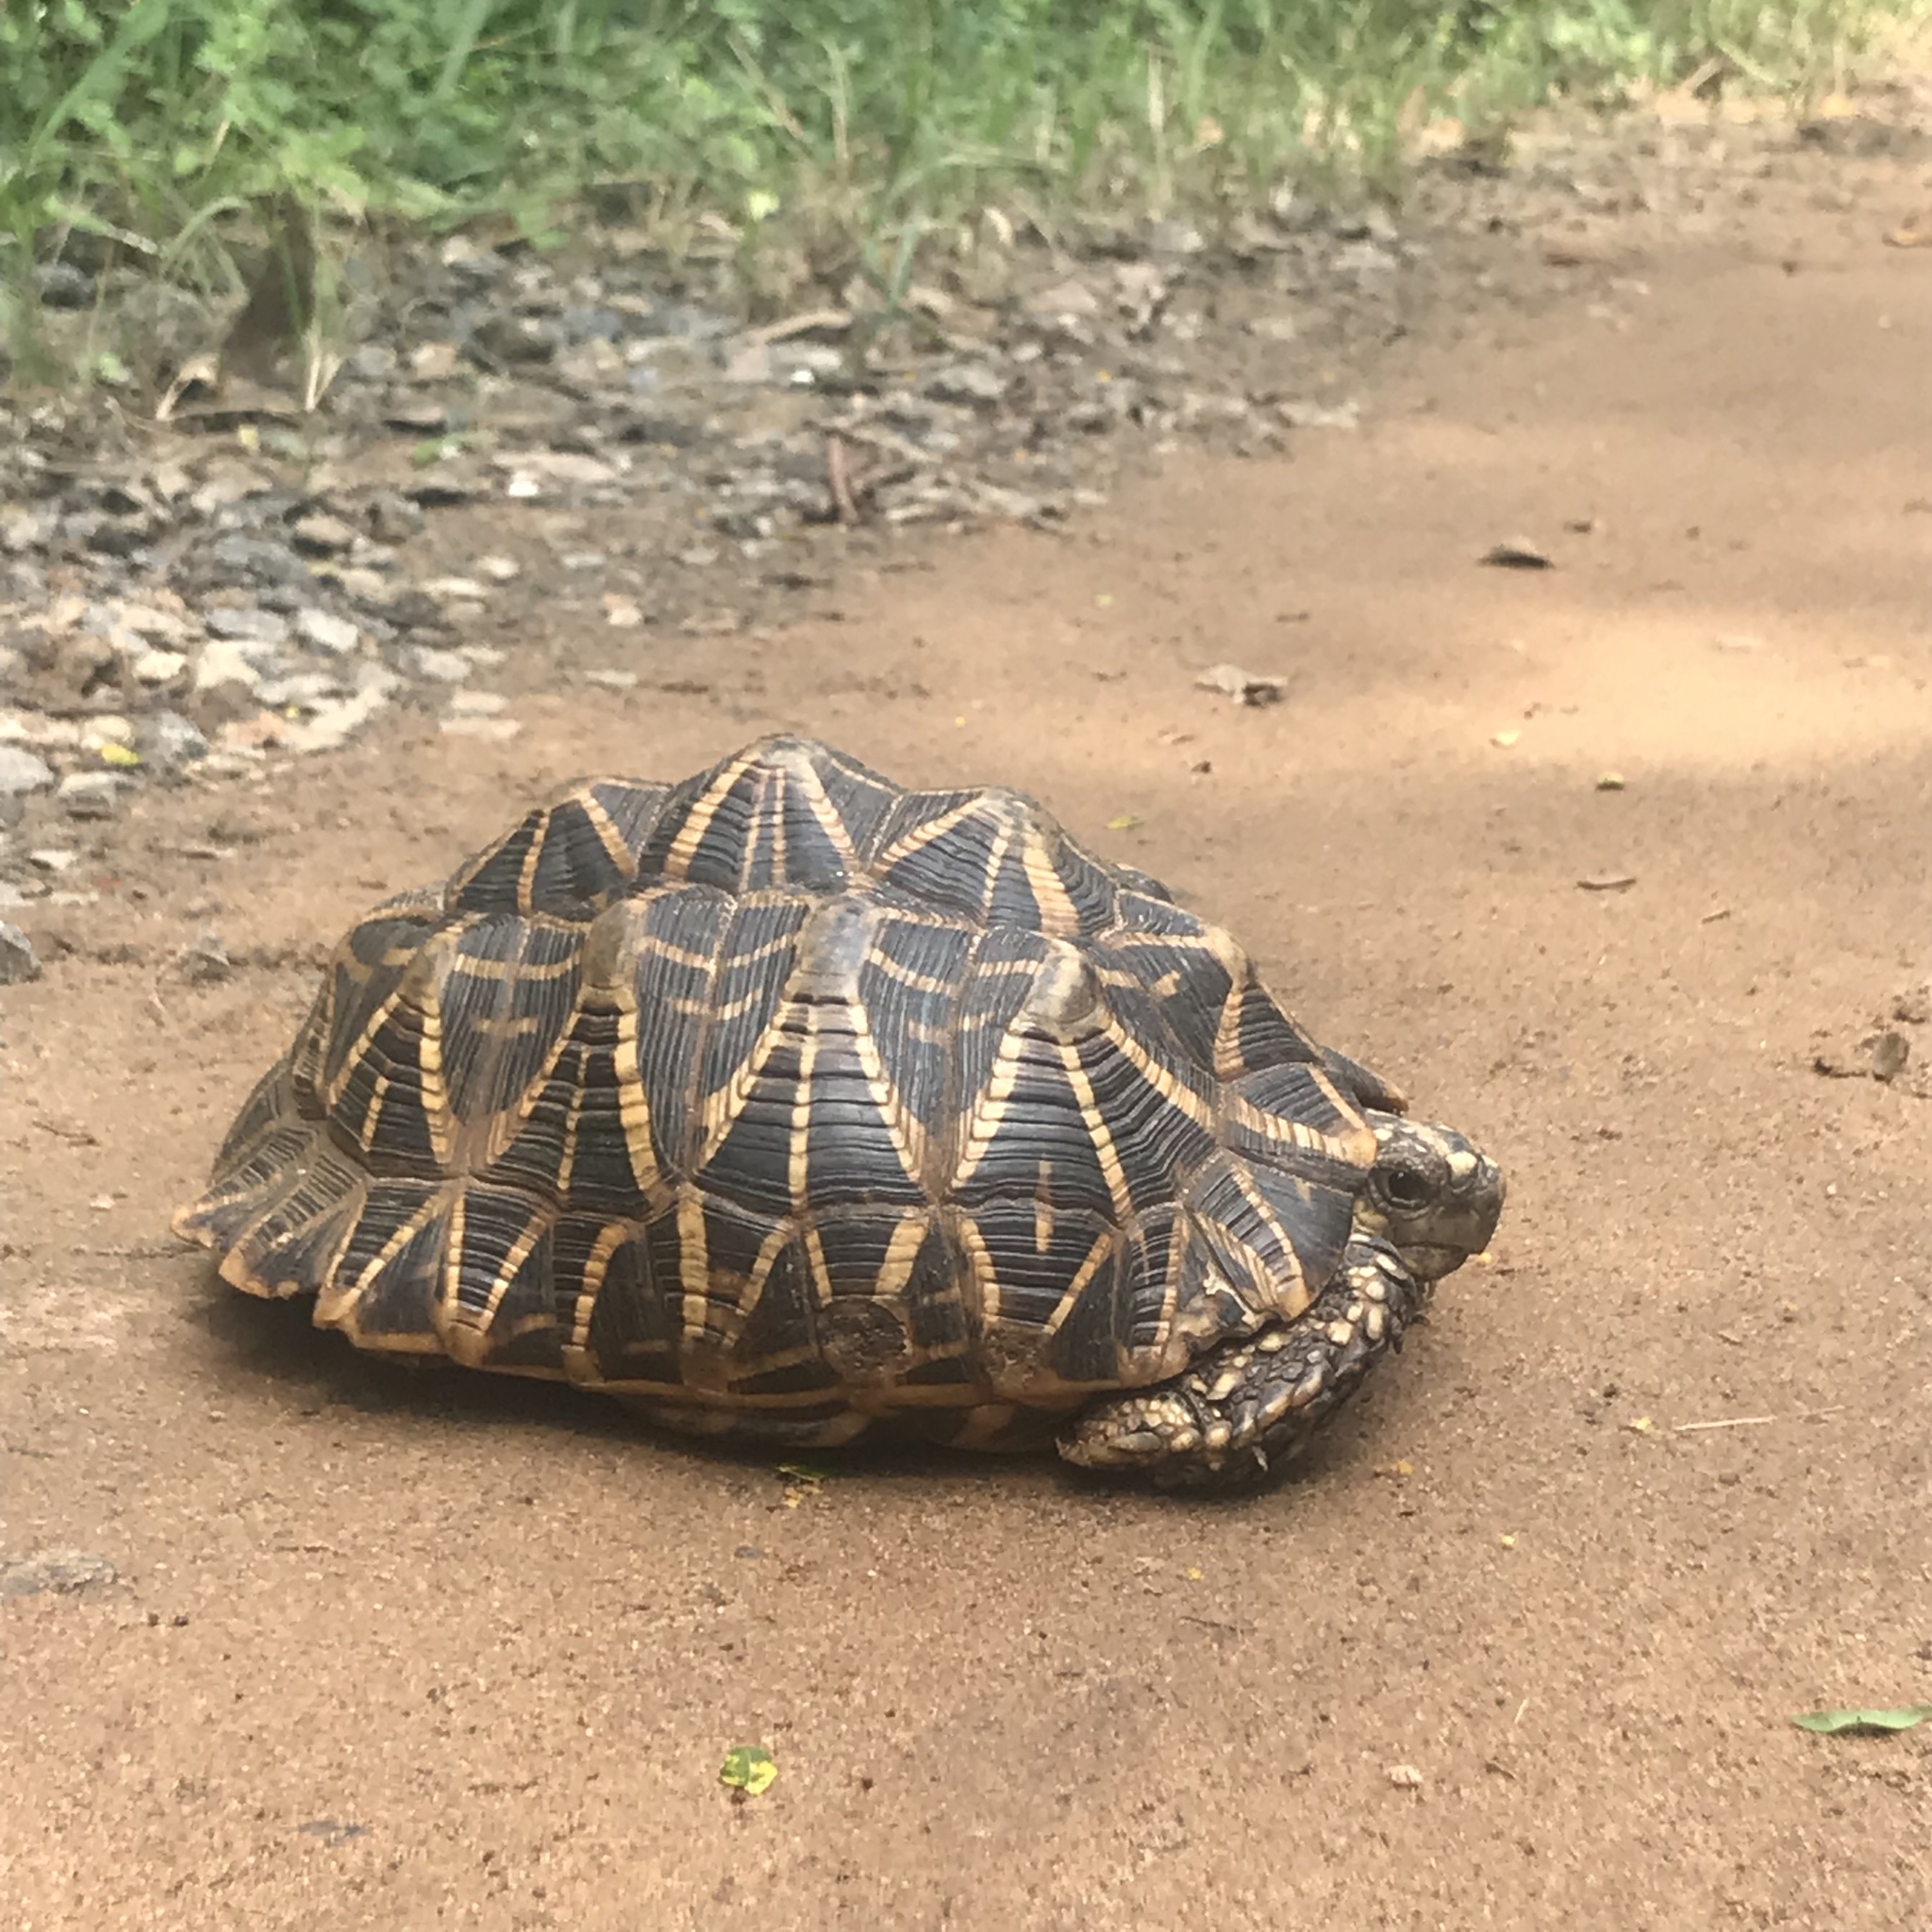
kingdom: Animalia
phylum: Chordata
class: Testudines
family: Testudinidae
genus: Geochelone
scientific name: Geochelone elegans
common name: Indian star tortoise
